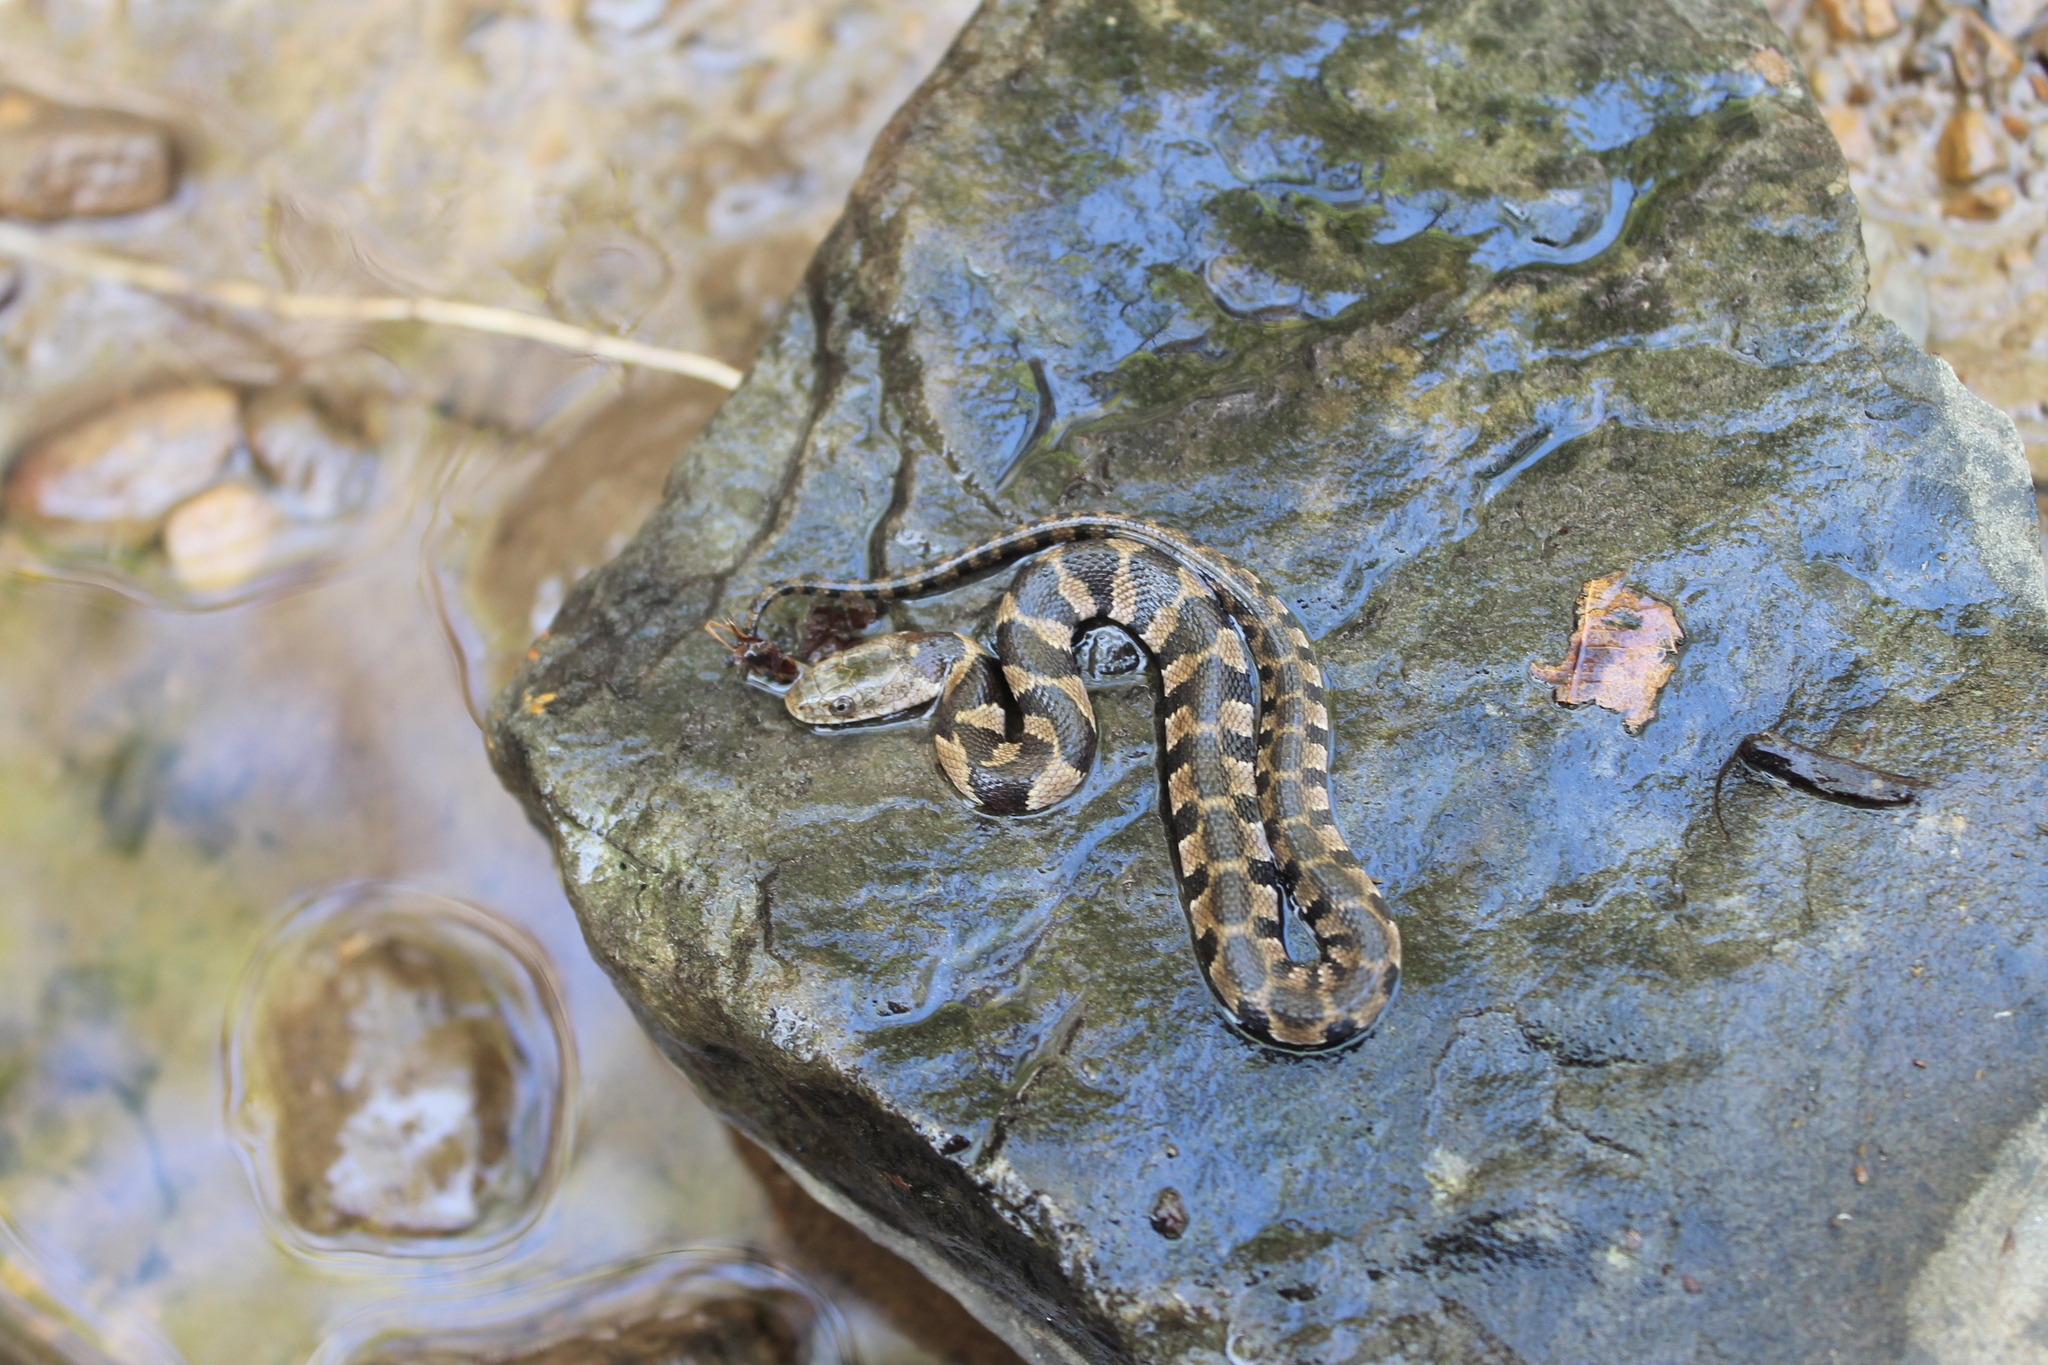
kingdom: Animalia
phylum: Chordata
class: Squamata
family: Colubridae
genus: Nerodia
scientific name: Nerodia sipedon
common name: Northern water snake
